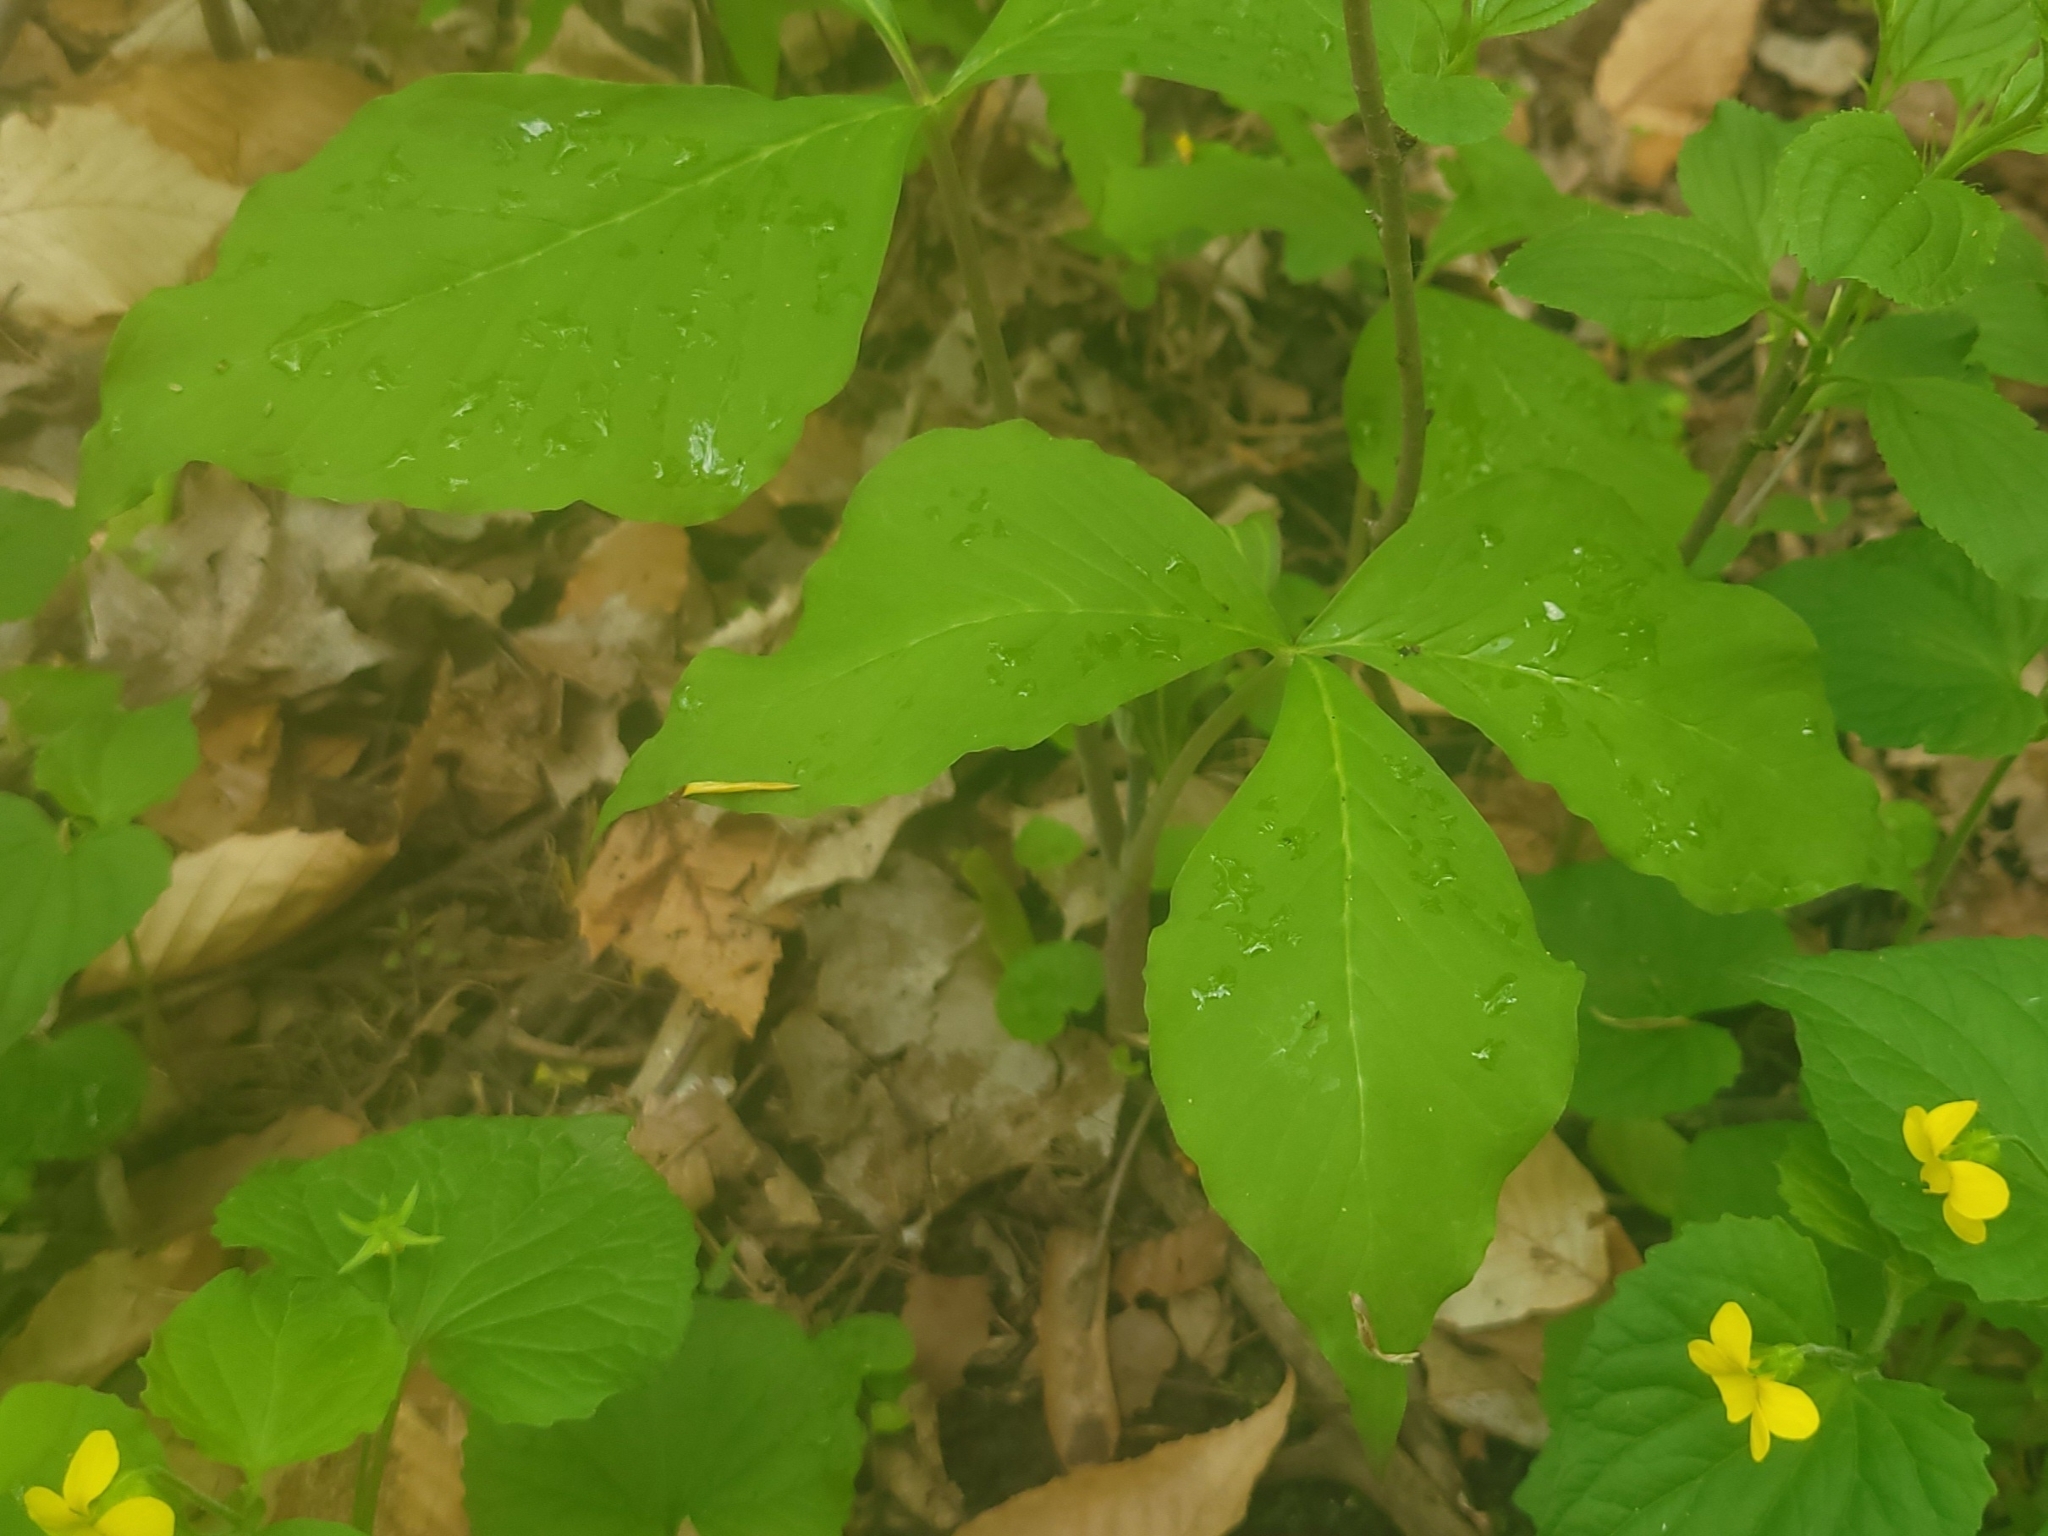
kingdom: Plantae
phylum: Tracheophyta
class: Liliopsida
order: Alismatales
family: Araceae
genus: Arisaema
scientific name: Arisaema triphyllum
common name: Jack-in-the-pulpit
